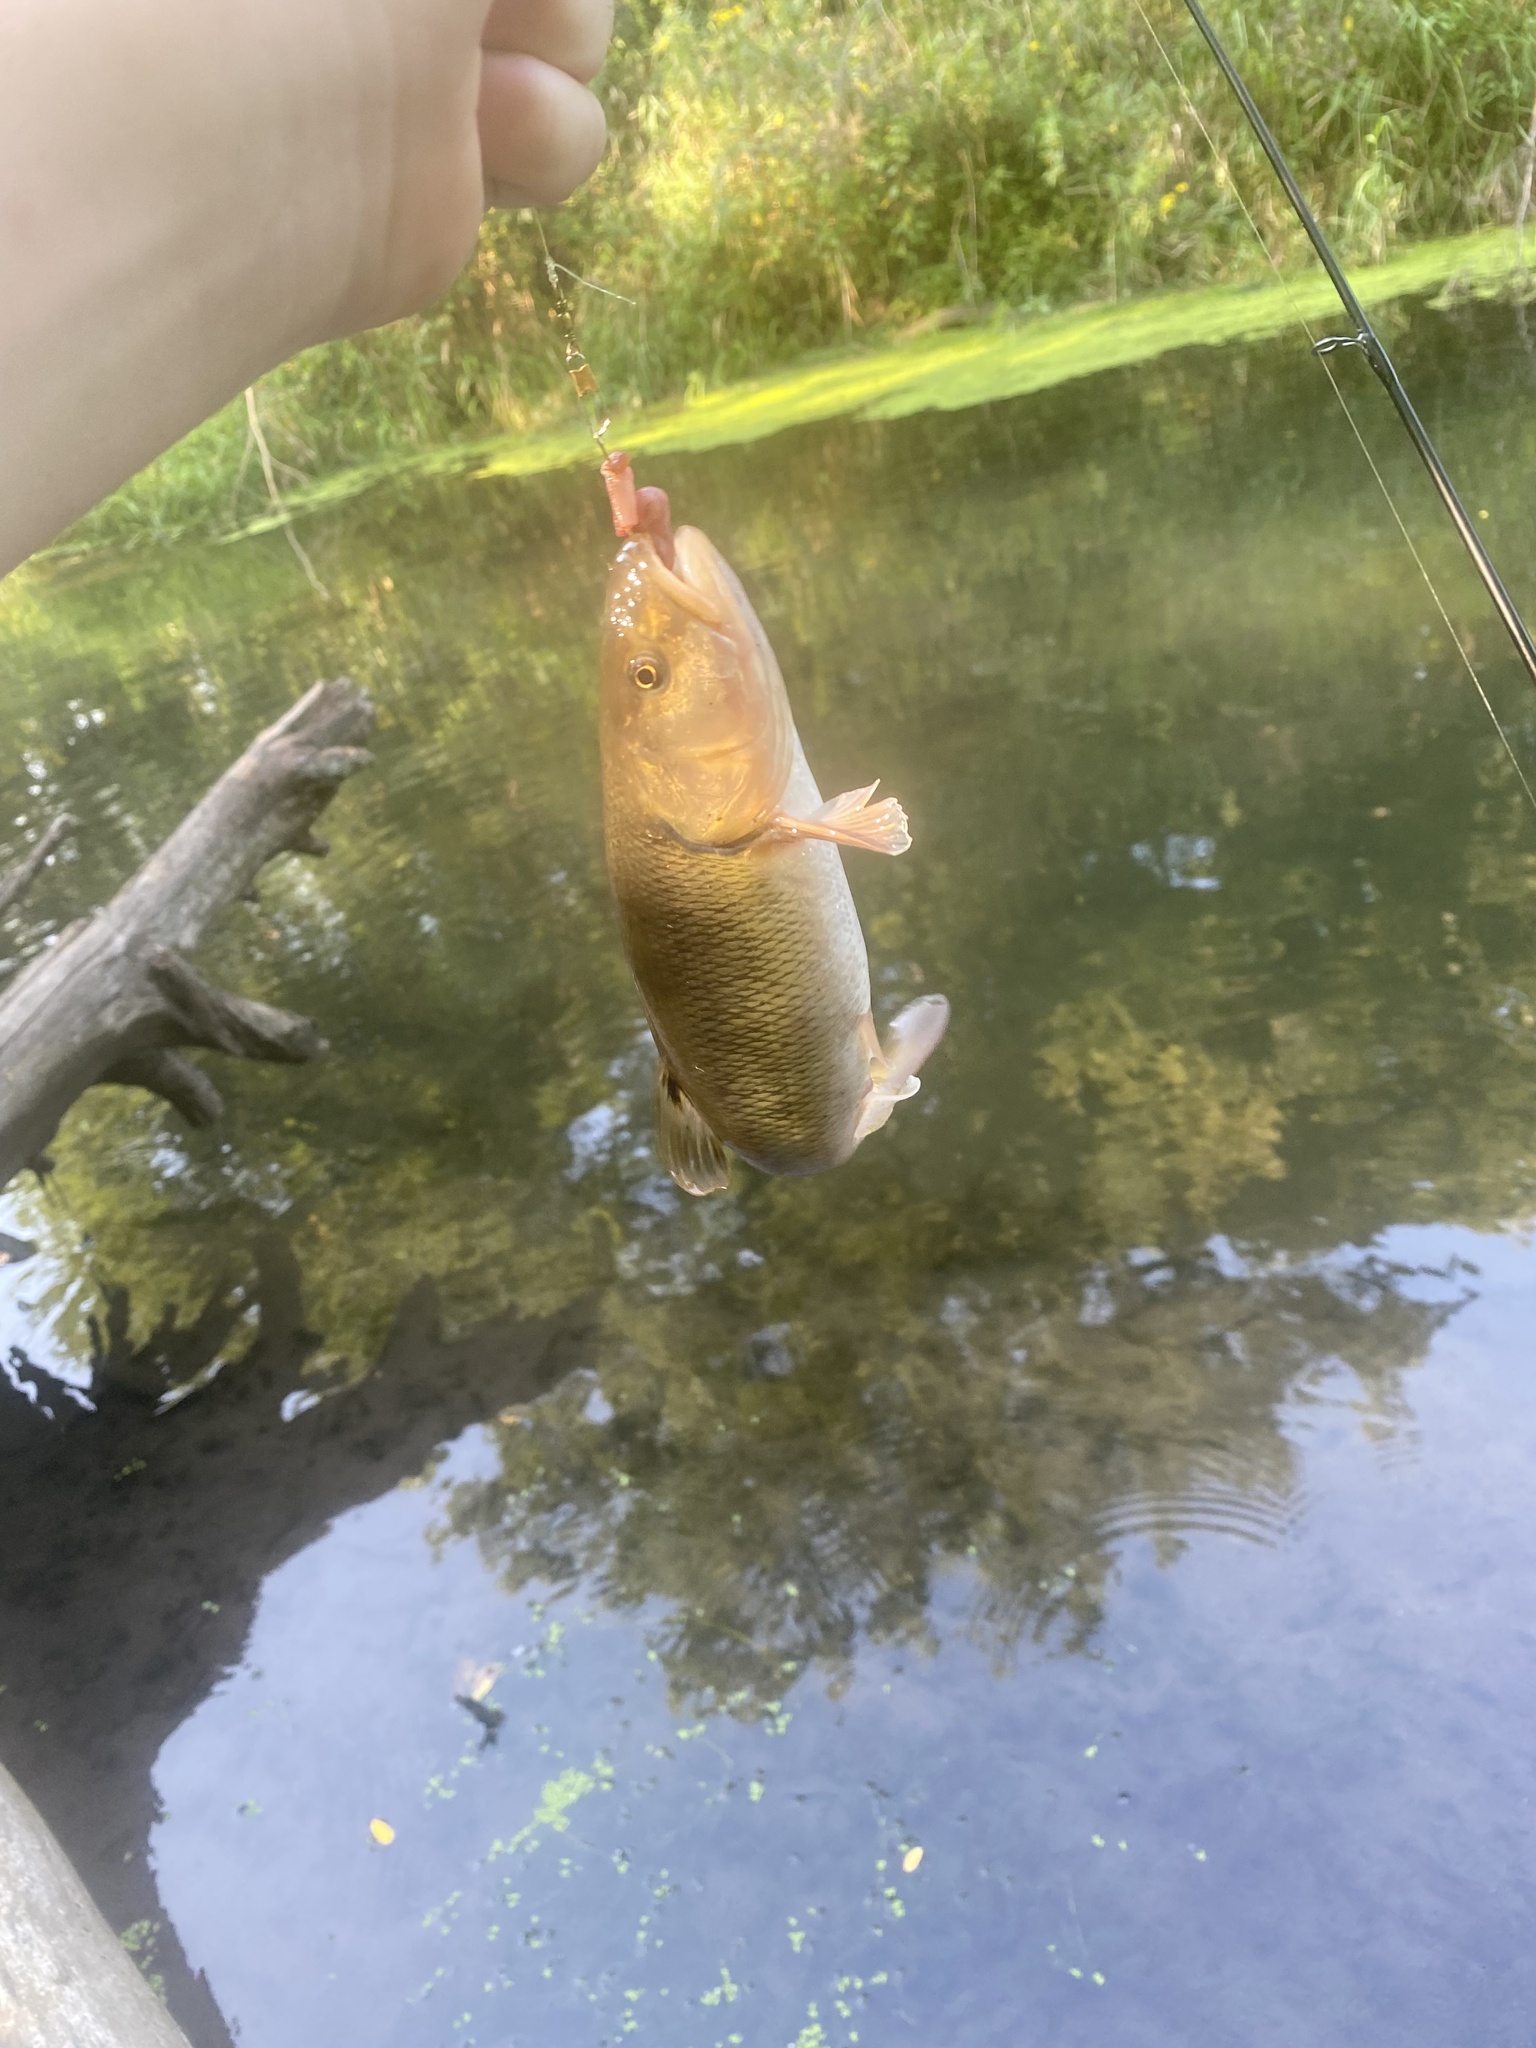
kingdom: Animalia
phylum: Chordata
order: Cypriniformes
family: Cyprinidae
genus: Semotilus
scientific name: Semotilus atromaculatus
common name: Creek chub
